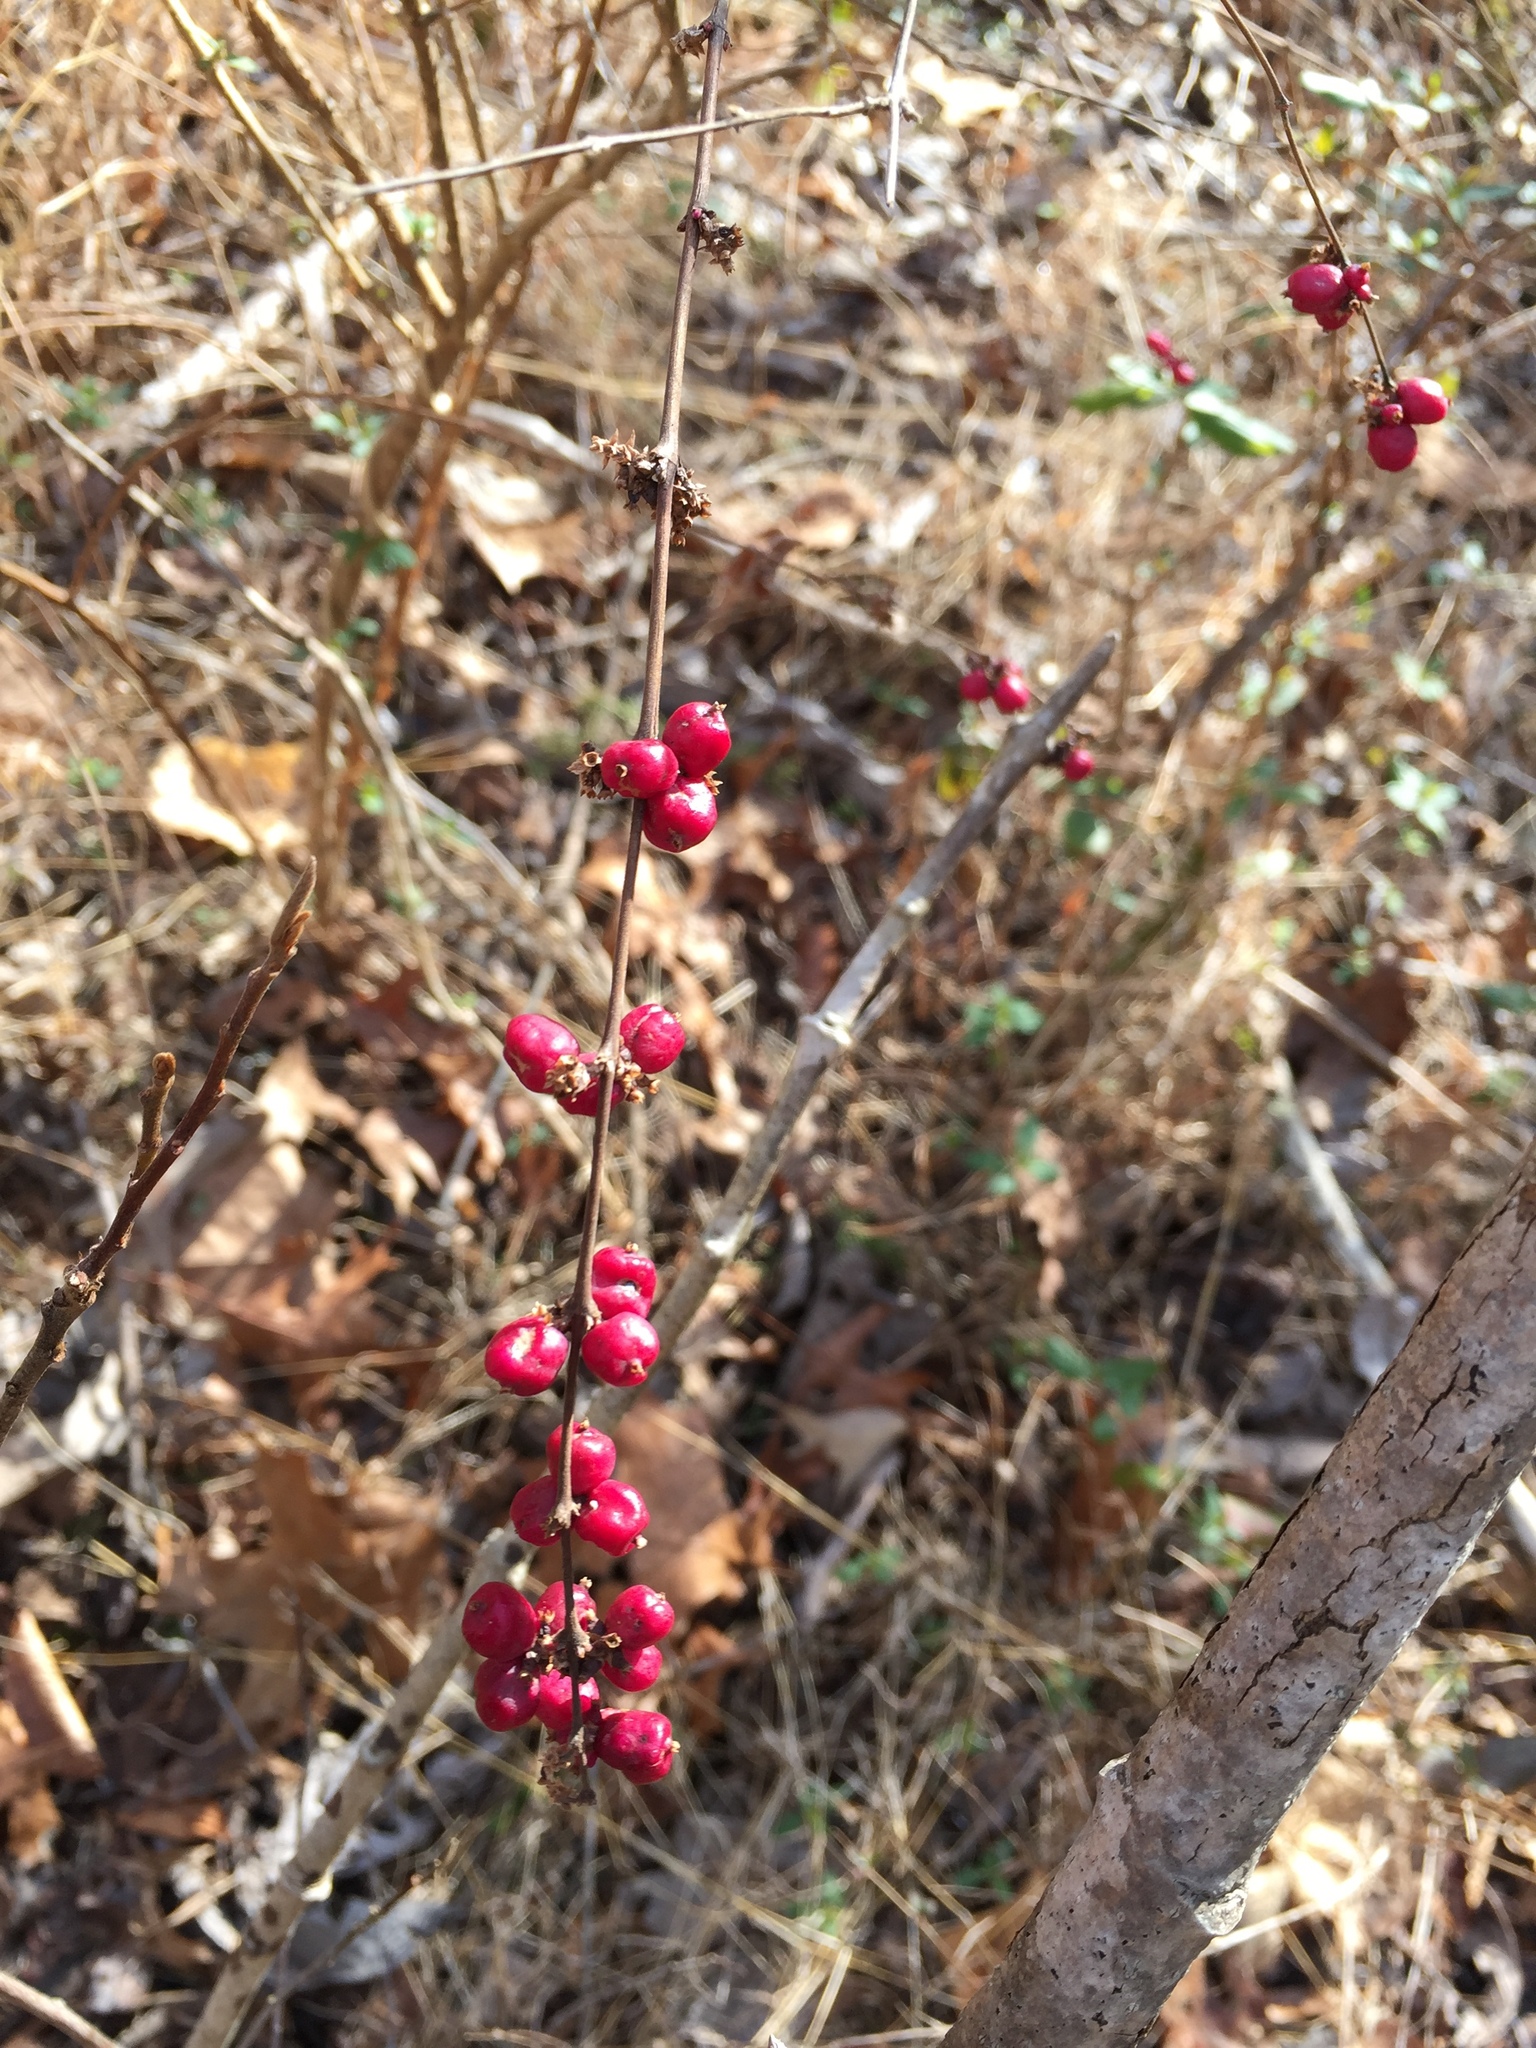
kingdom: Plantae
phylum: Tracheophyta
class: Magnoliopsida
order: Dipsacales
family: Caprifoliaceae
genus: Symphoricarpos
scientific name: Symphoricarpos orbiculatus
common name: Coralberry
